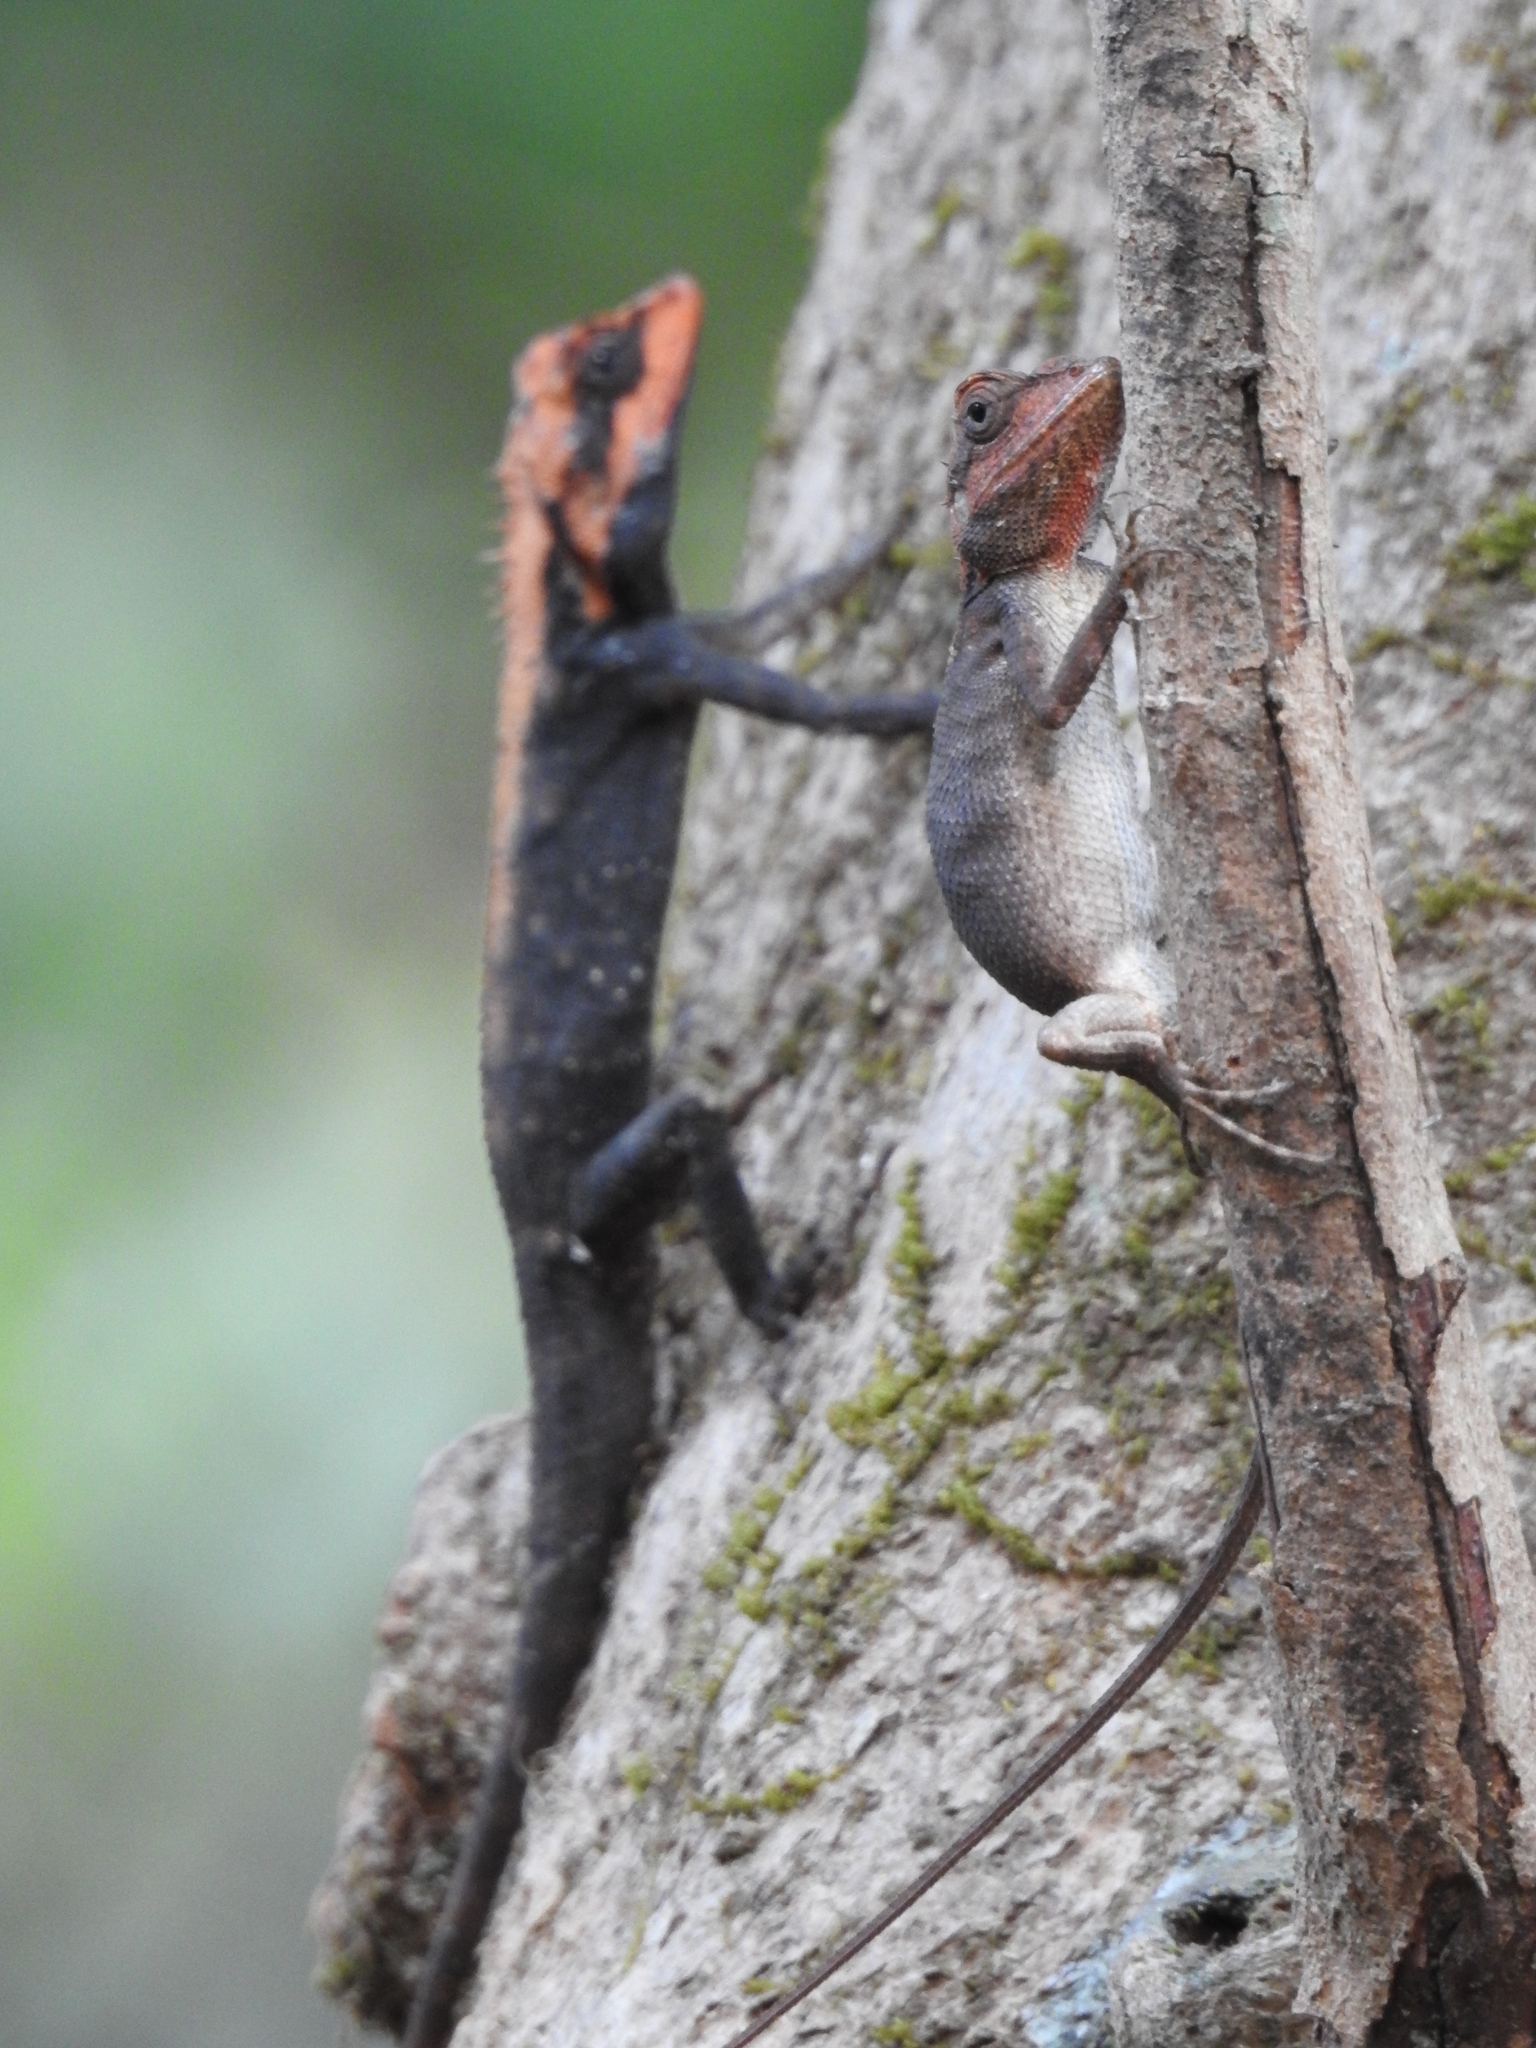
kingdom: Animalia
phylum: Chordata
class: Squamata
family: Agamidae
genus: Monilesaurus
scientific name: Monilesaurus rouxii
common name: Roux's forest lizard
